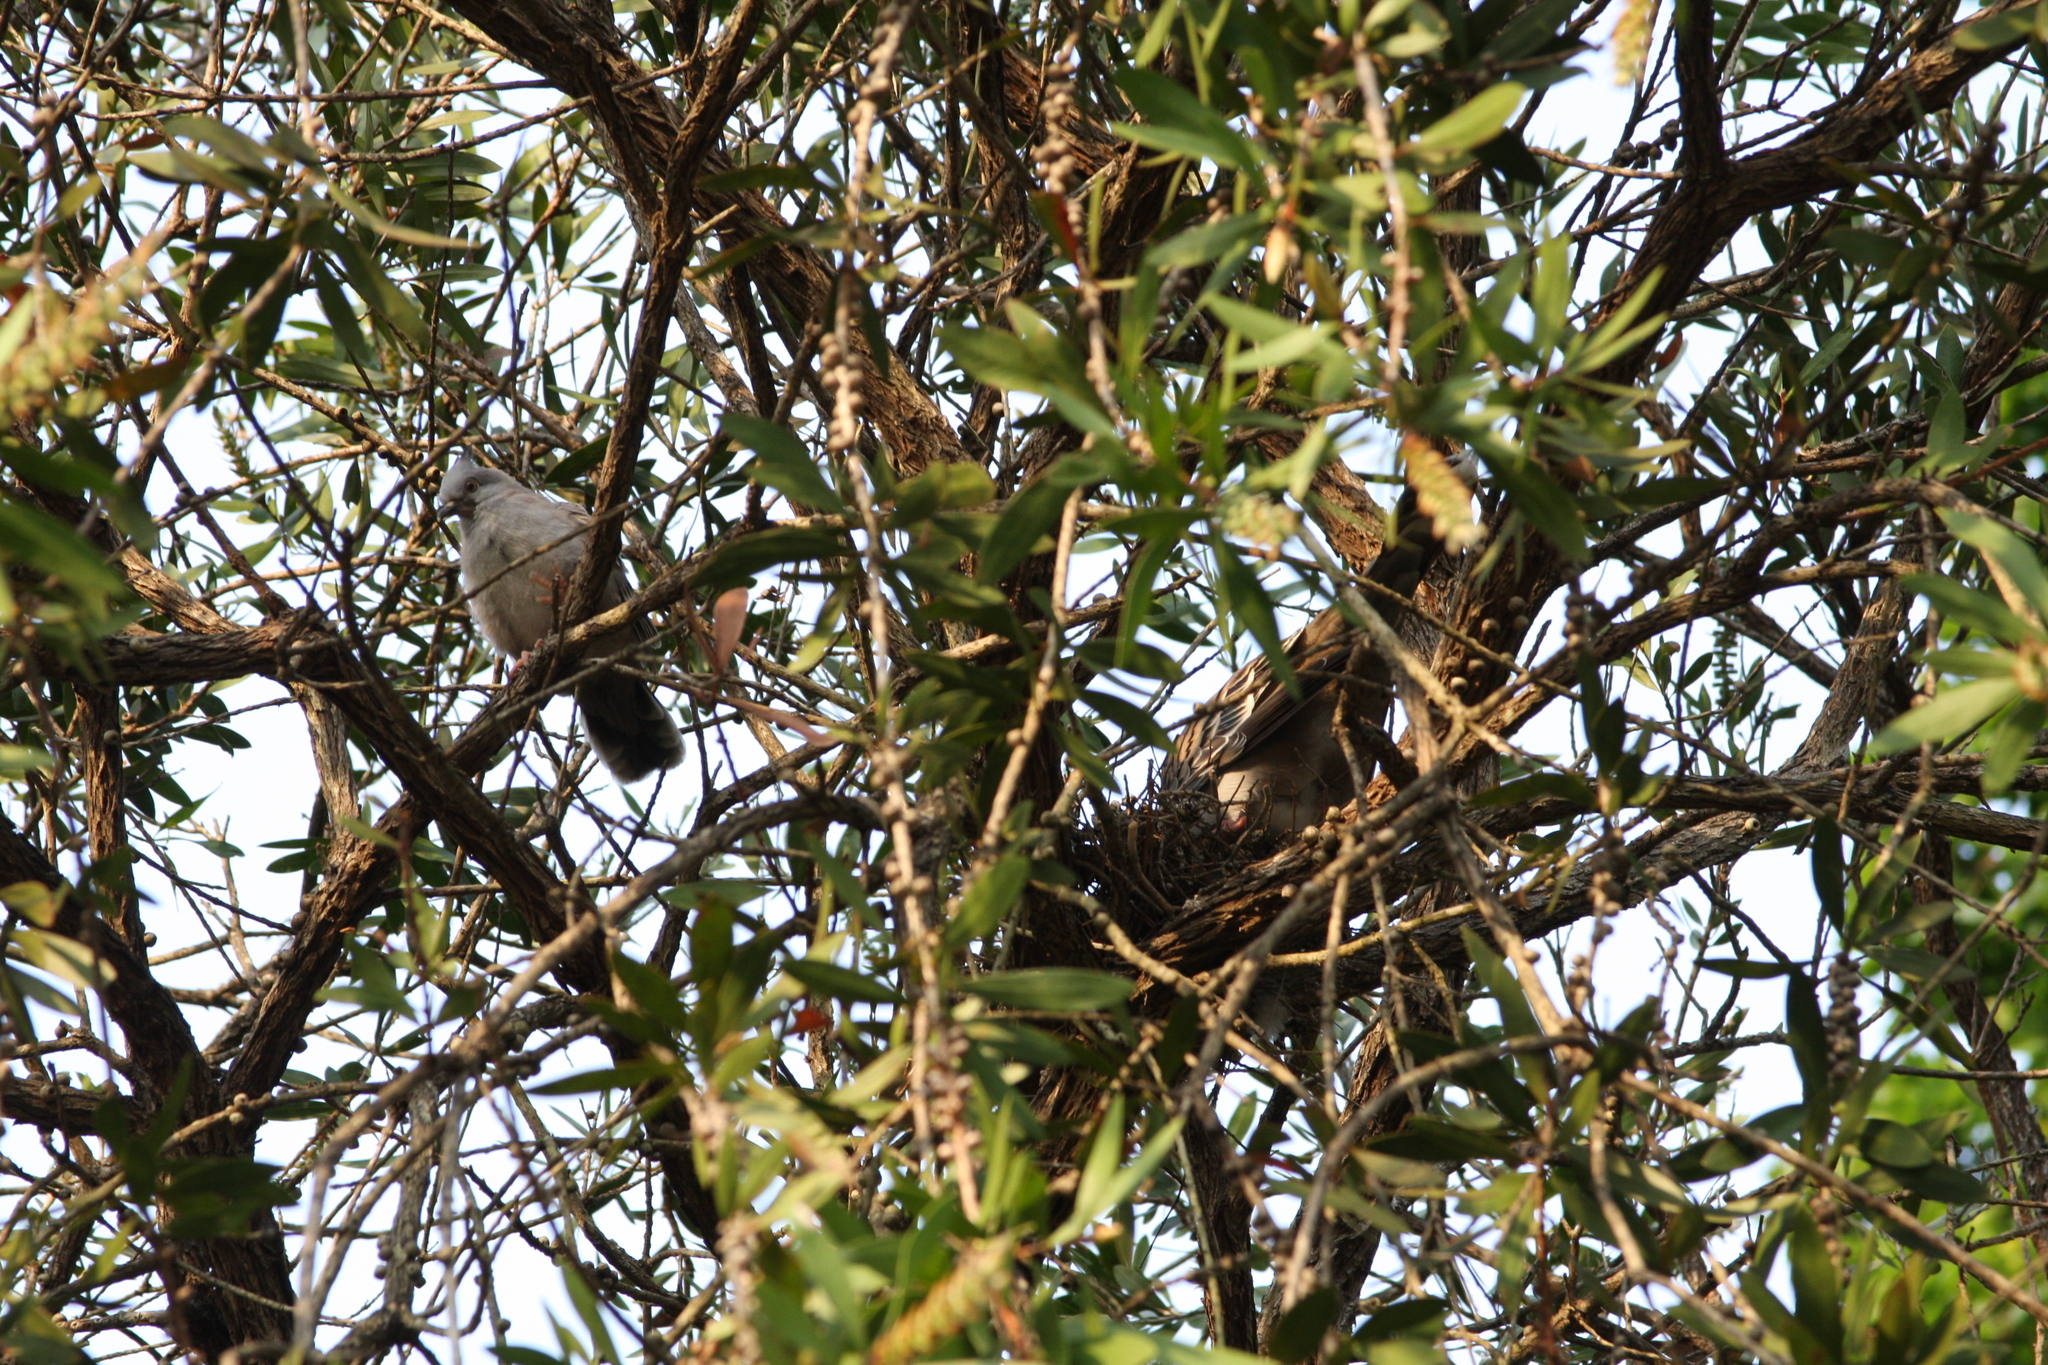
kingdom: Animalia
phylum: Chordata
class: Aves
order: Columbiformes
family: Columbidae
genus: Ocyphaps
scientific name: Ocyphaps lophotes
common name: Crested pigeon
